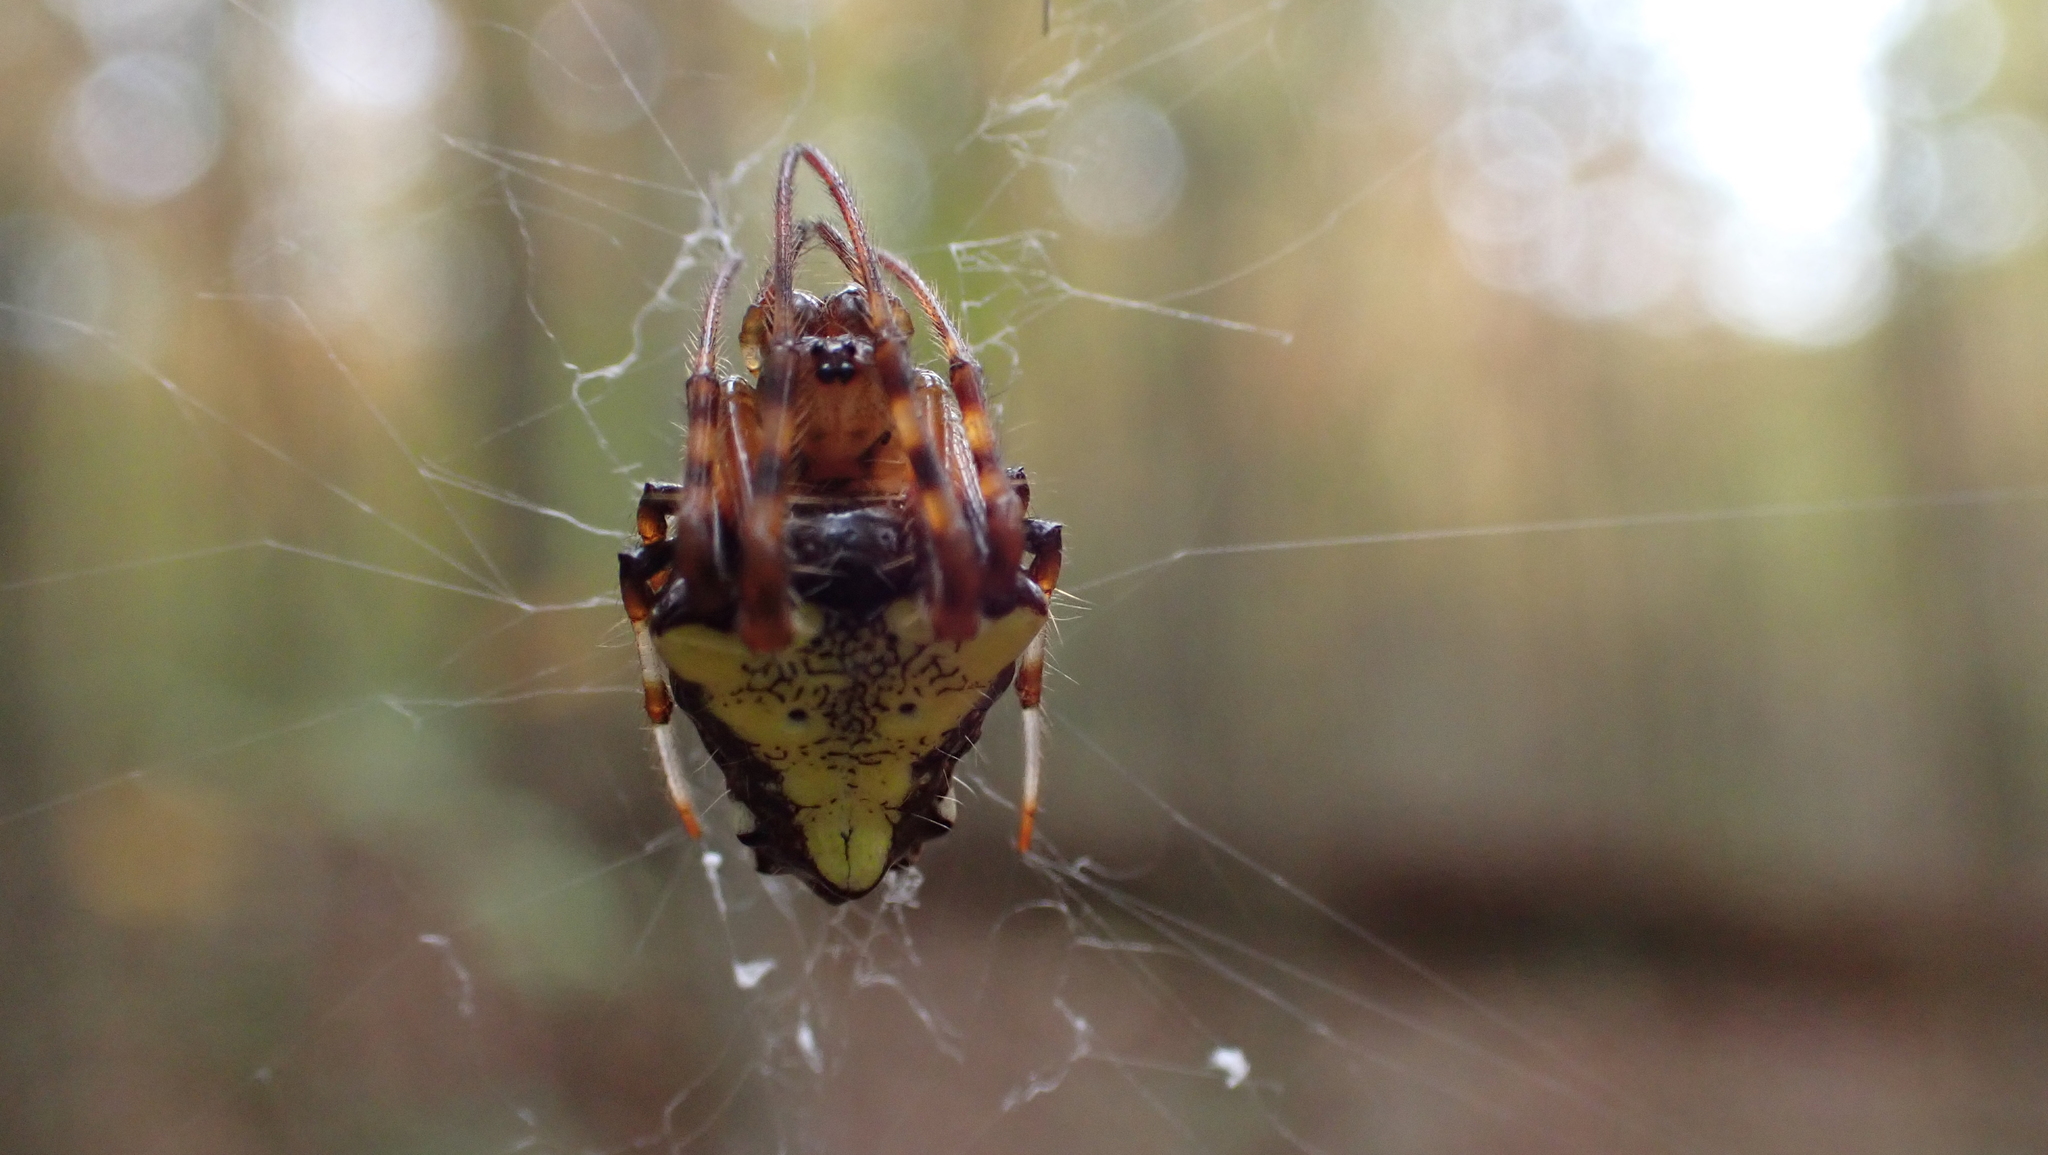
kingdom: Animalia
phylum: Arthropoda
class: Arachnida
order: Araneae
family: Araneidae
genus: Verrucosa
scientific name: Verrucosa arenata
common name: Orb weavers
